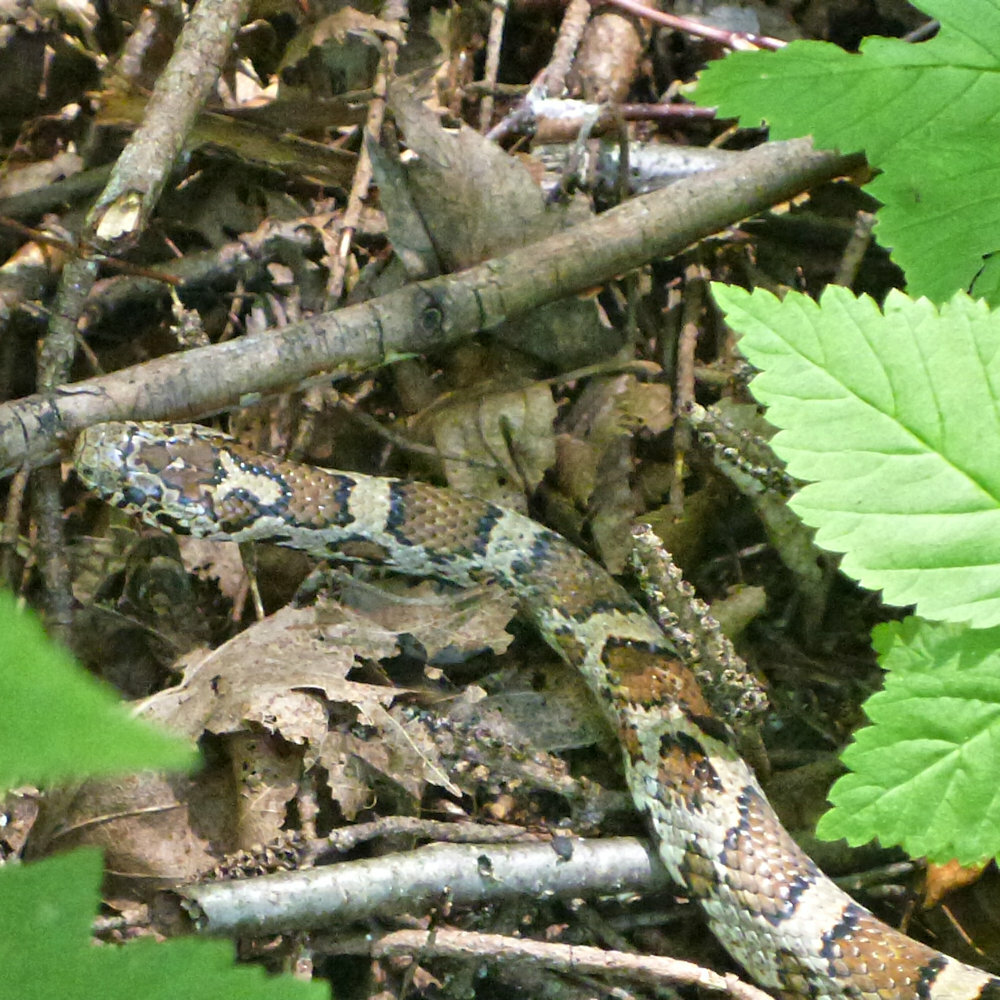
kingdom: Animalia
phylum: Chordata
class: Squamata
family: Colubridae
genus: Lampropeltis
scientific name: Lampropeltis triangulum
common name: Eastern milksnake
